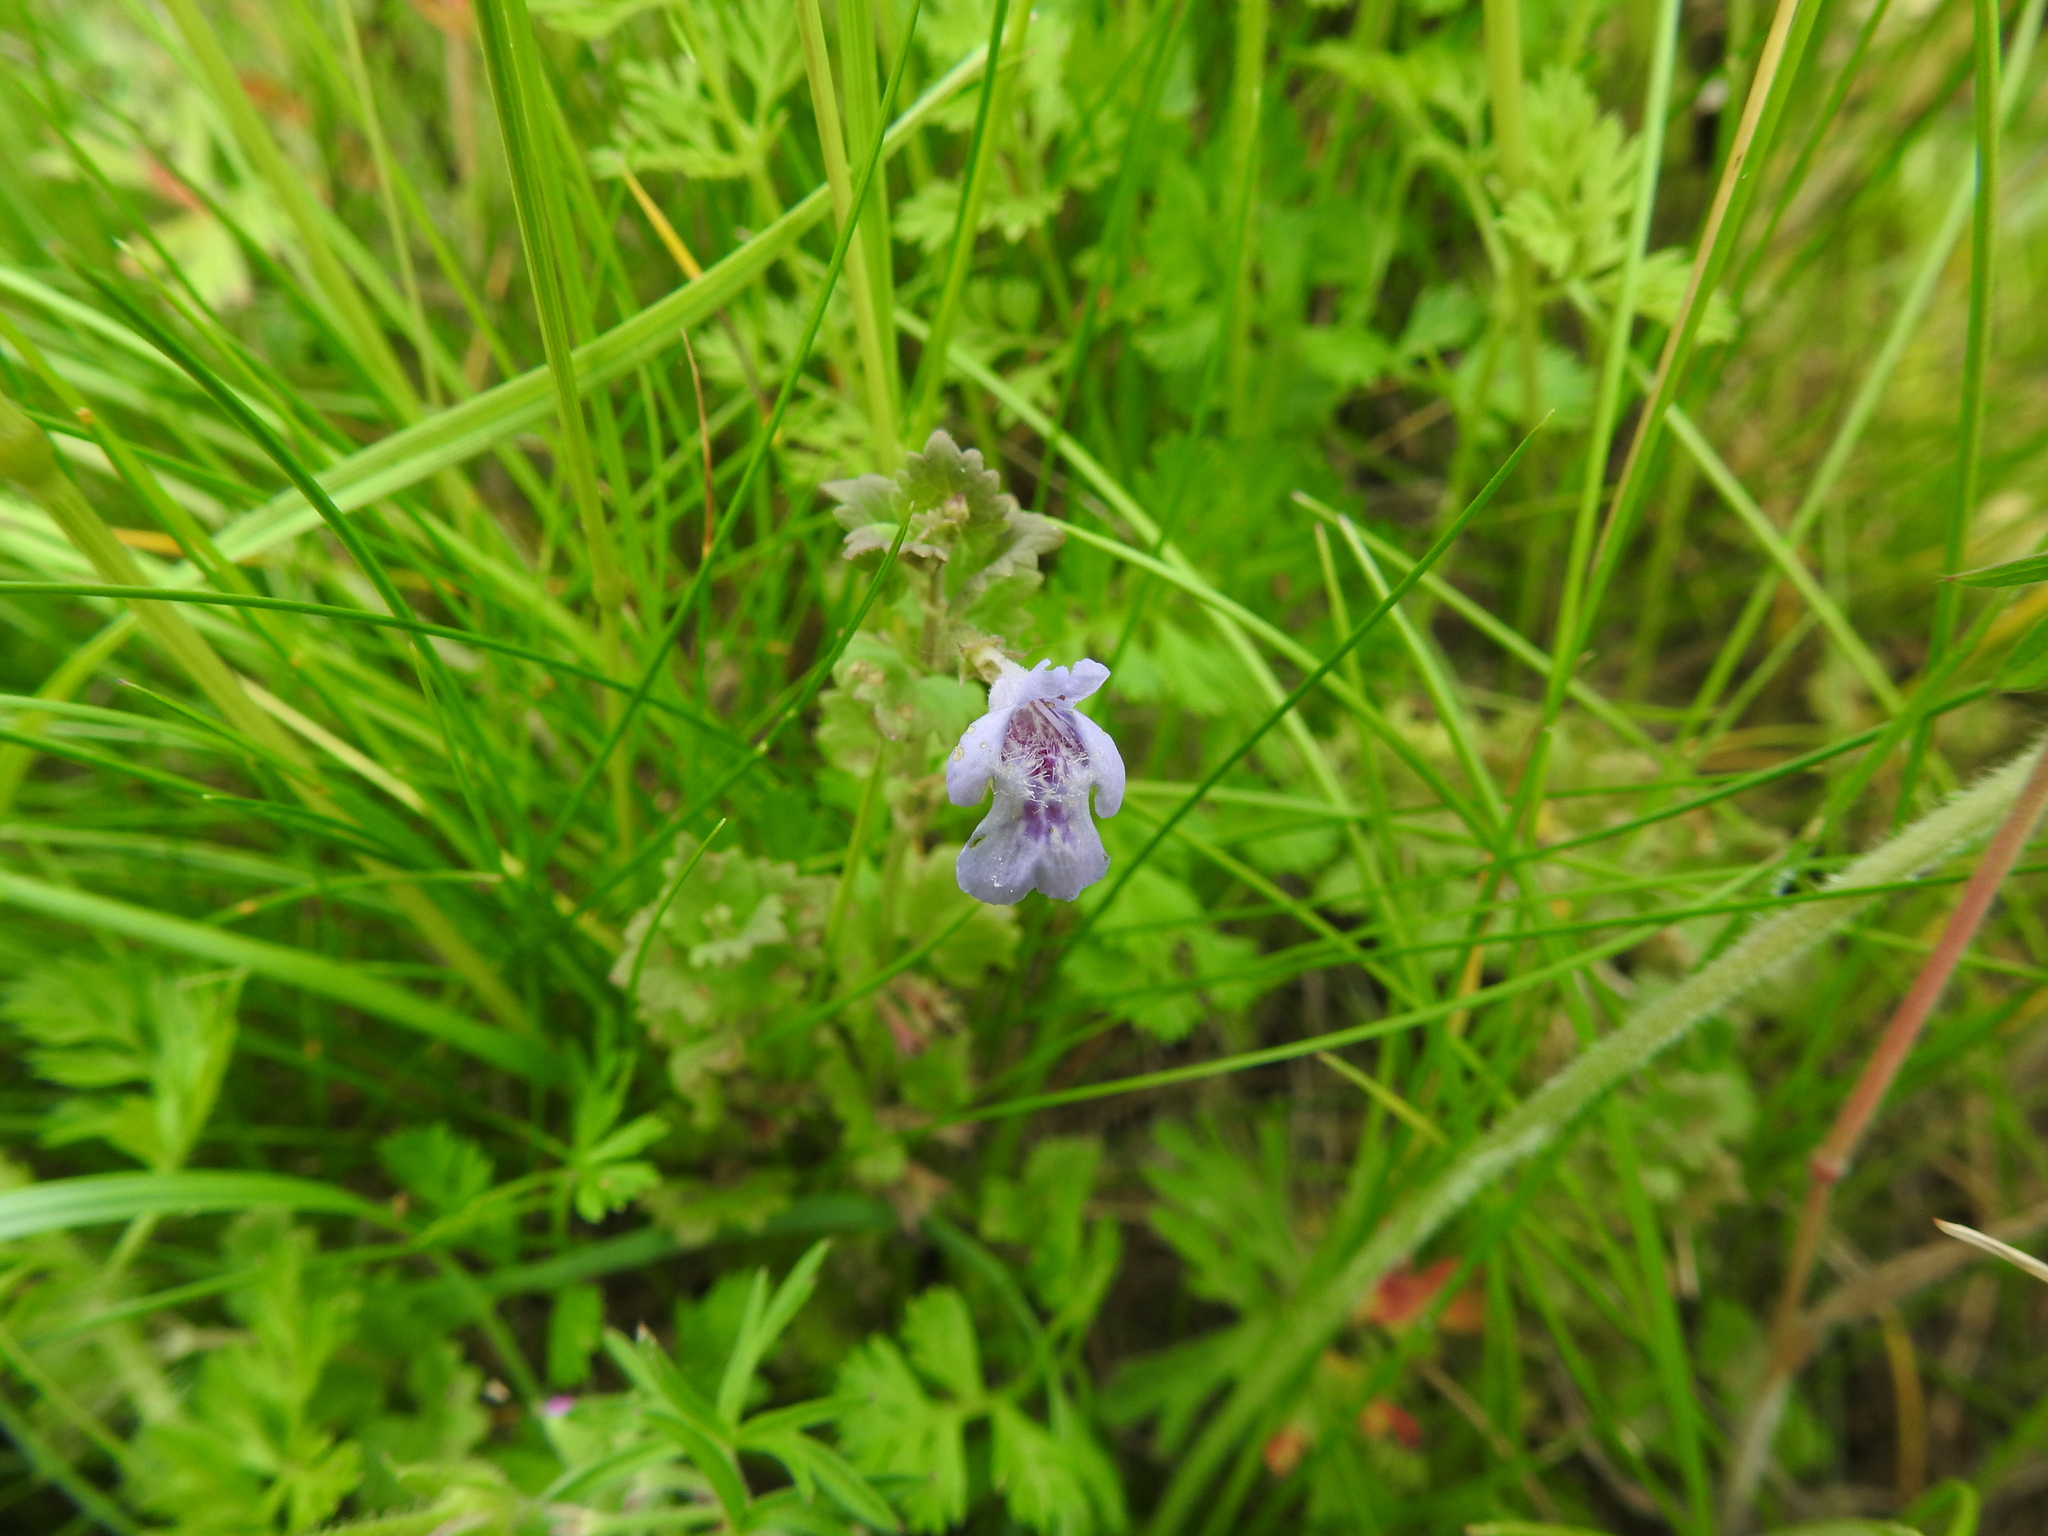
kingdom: Plantae
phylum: Tracheophyta
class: Magnoliopsida
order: Lamiales
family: Lamiaceae
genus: Glechoma
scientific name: Glechoma hederacea
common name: Ground ivy
